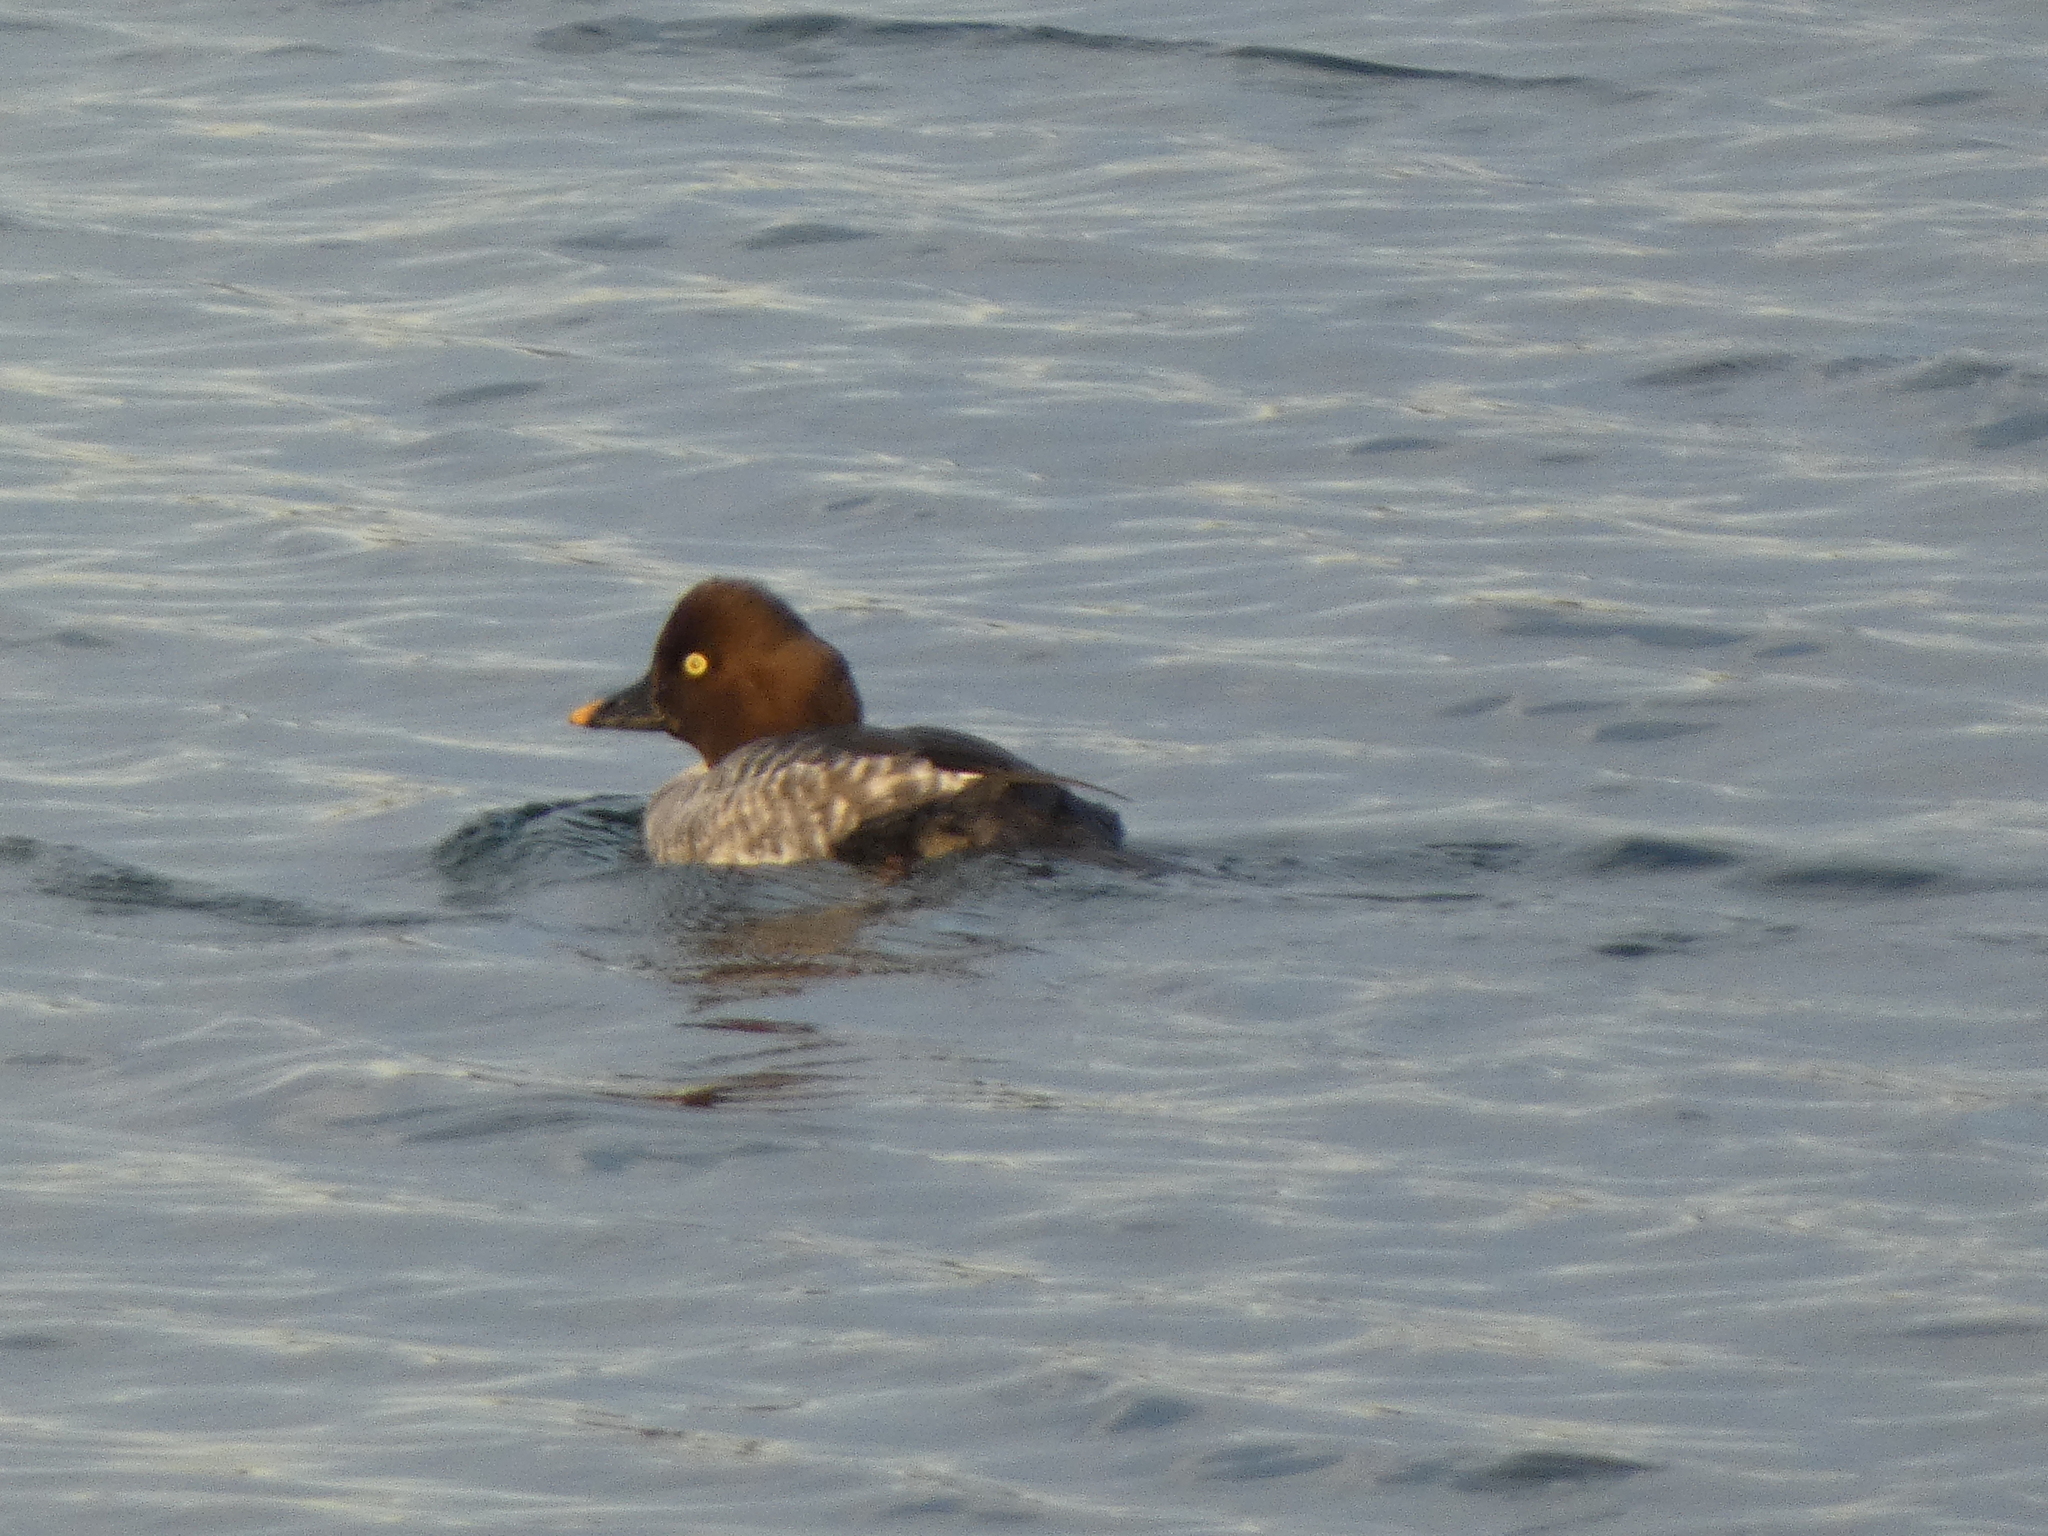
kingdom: Animalia
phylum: Chordata
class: Aves
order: Anseriformes
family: Anatidae
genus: Bucephala
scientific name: Bucephala clangula
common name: Common goldeneye
